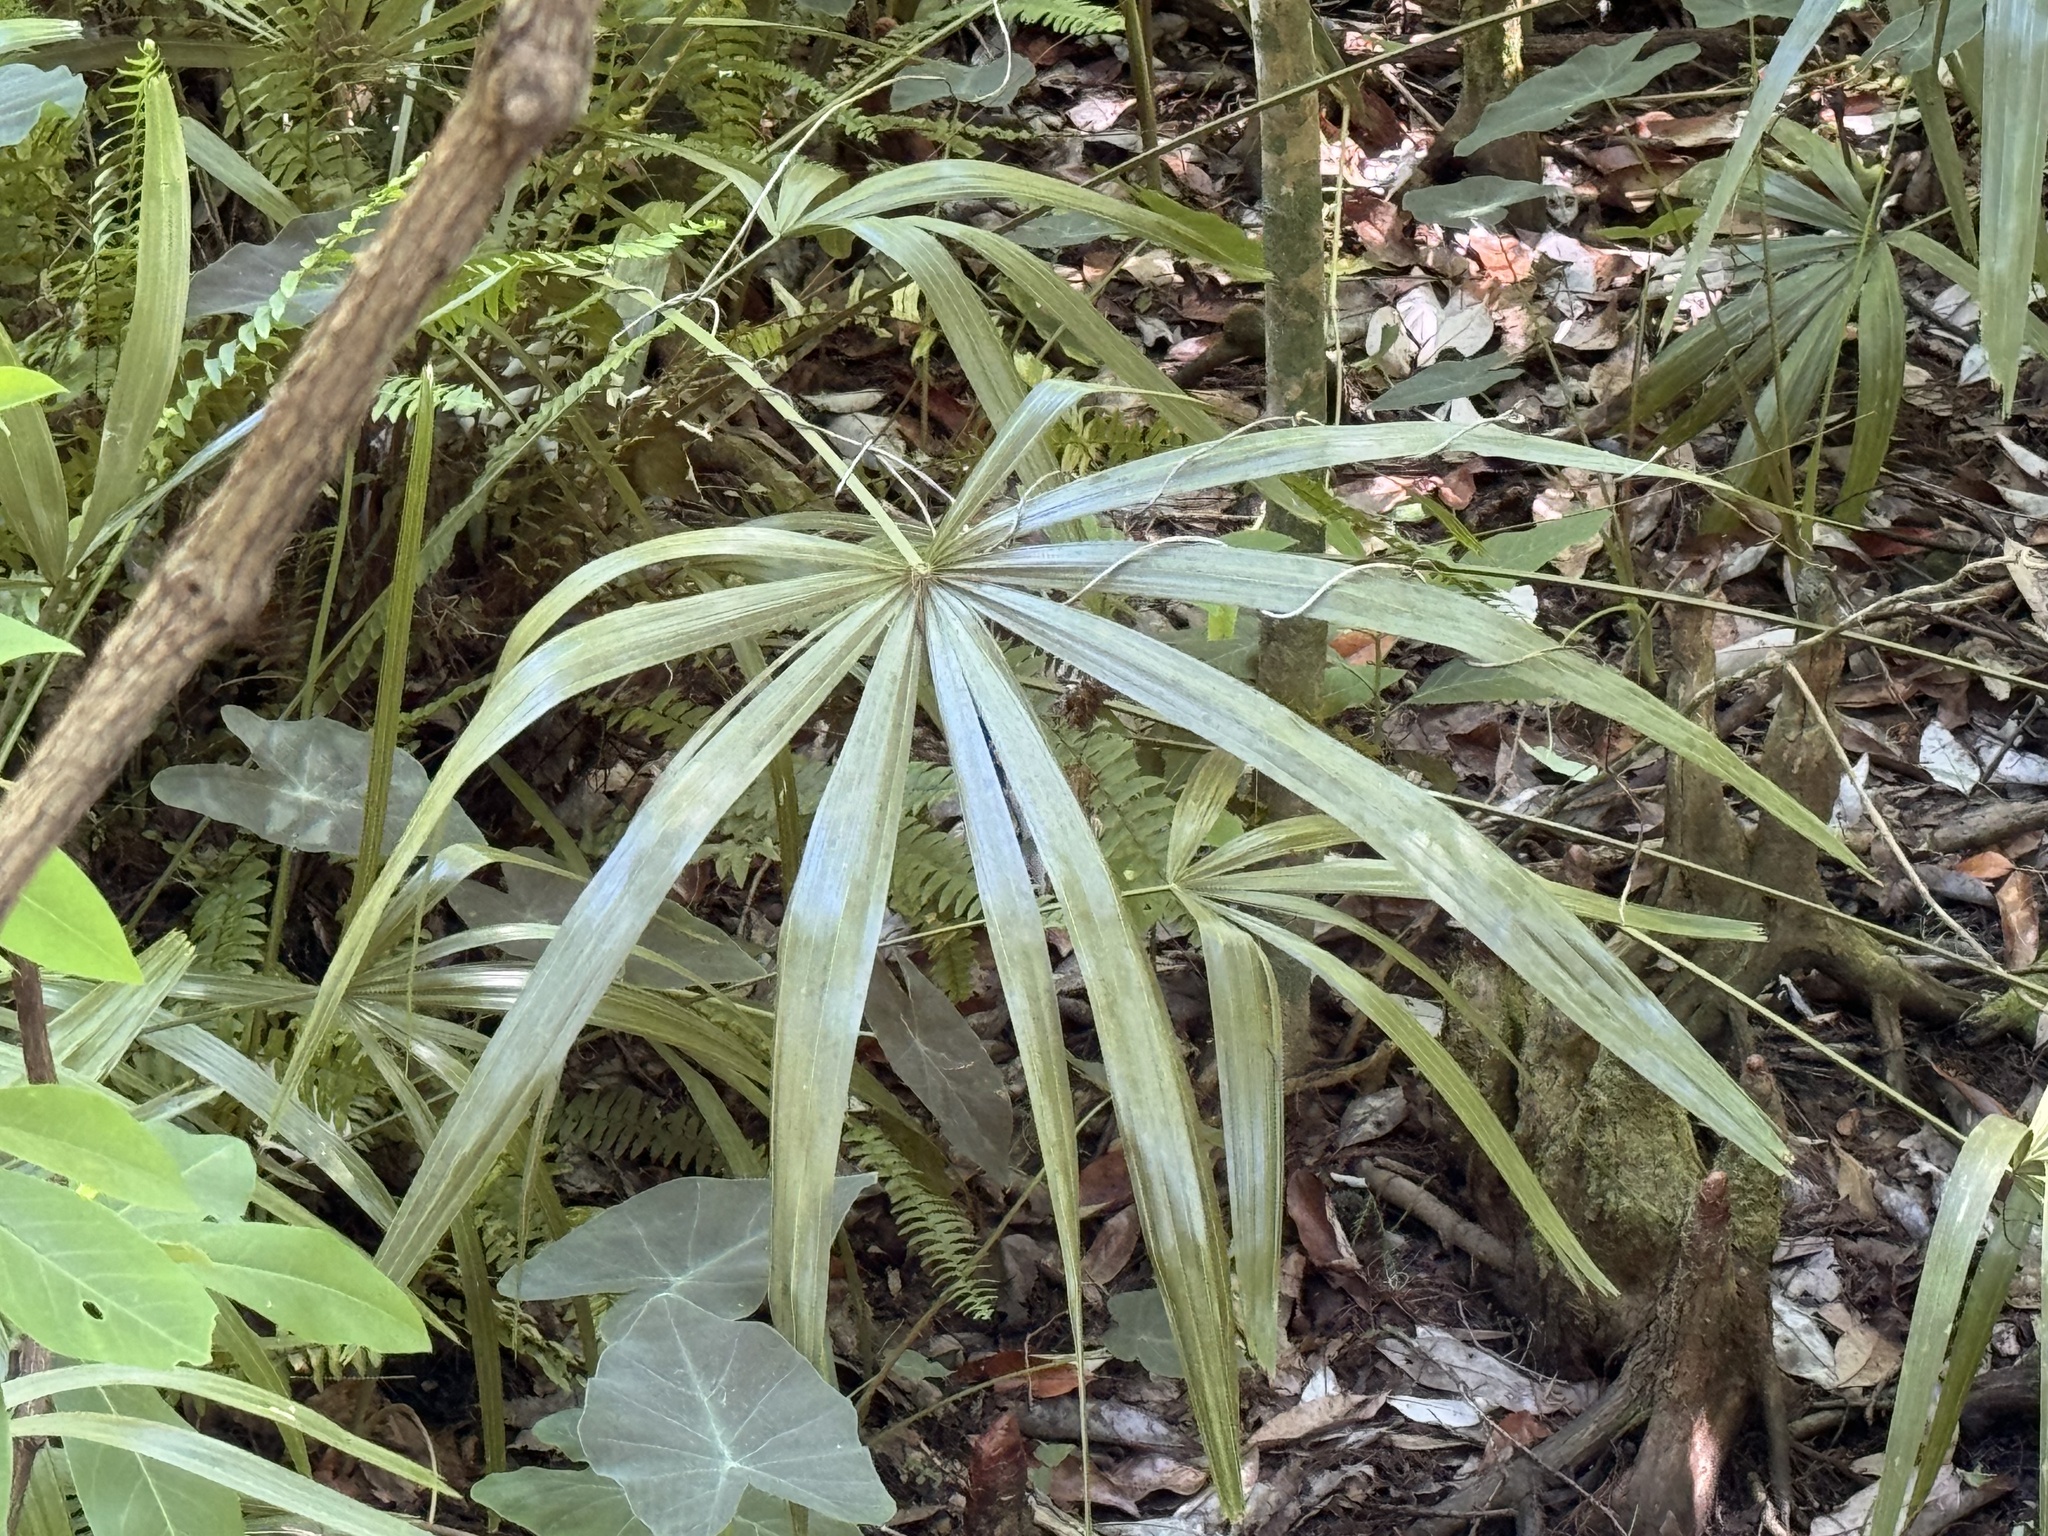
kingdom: Plantae
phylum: Tracheophyta
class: Liliopsida
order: Arecales
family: Arecaceae
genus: Rhapidophyllum
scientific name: Rhapidophyllum hystrix
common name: Porcupine palm
